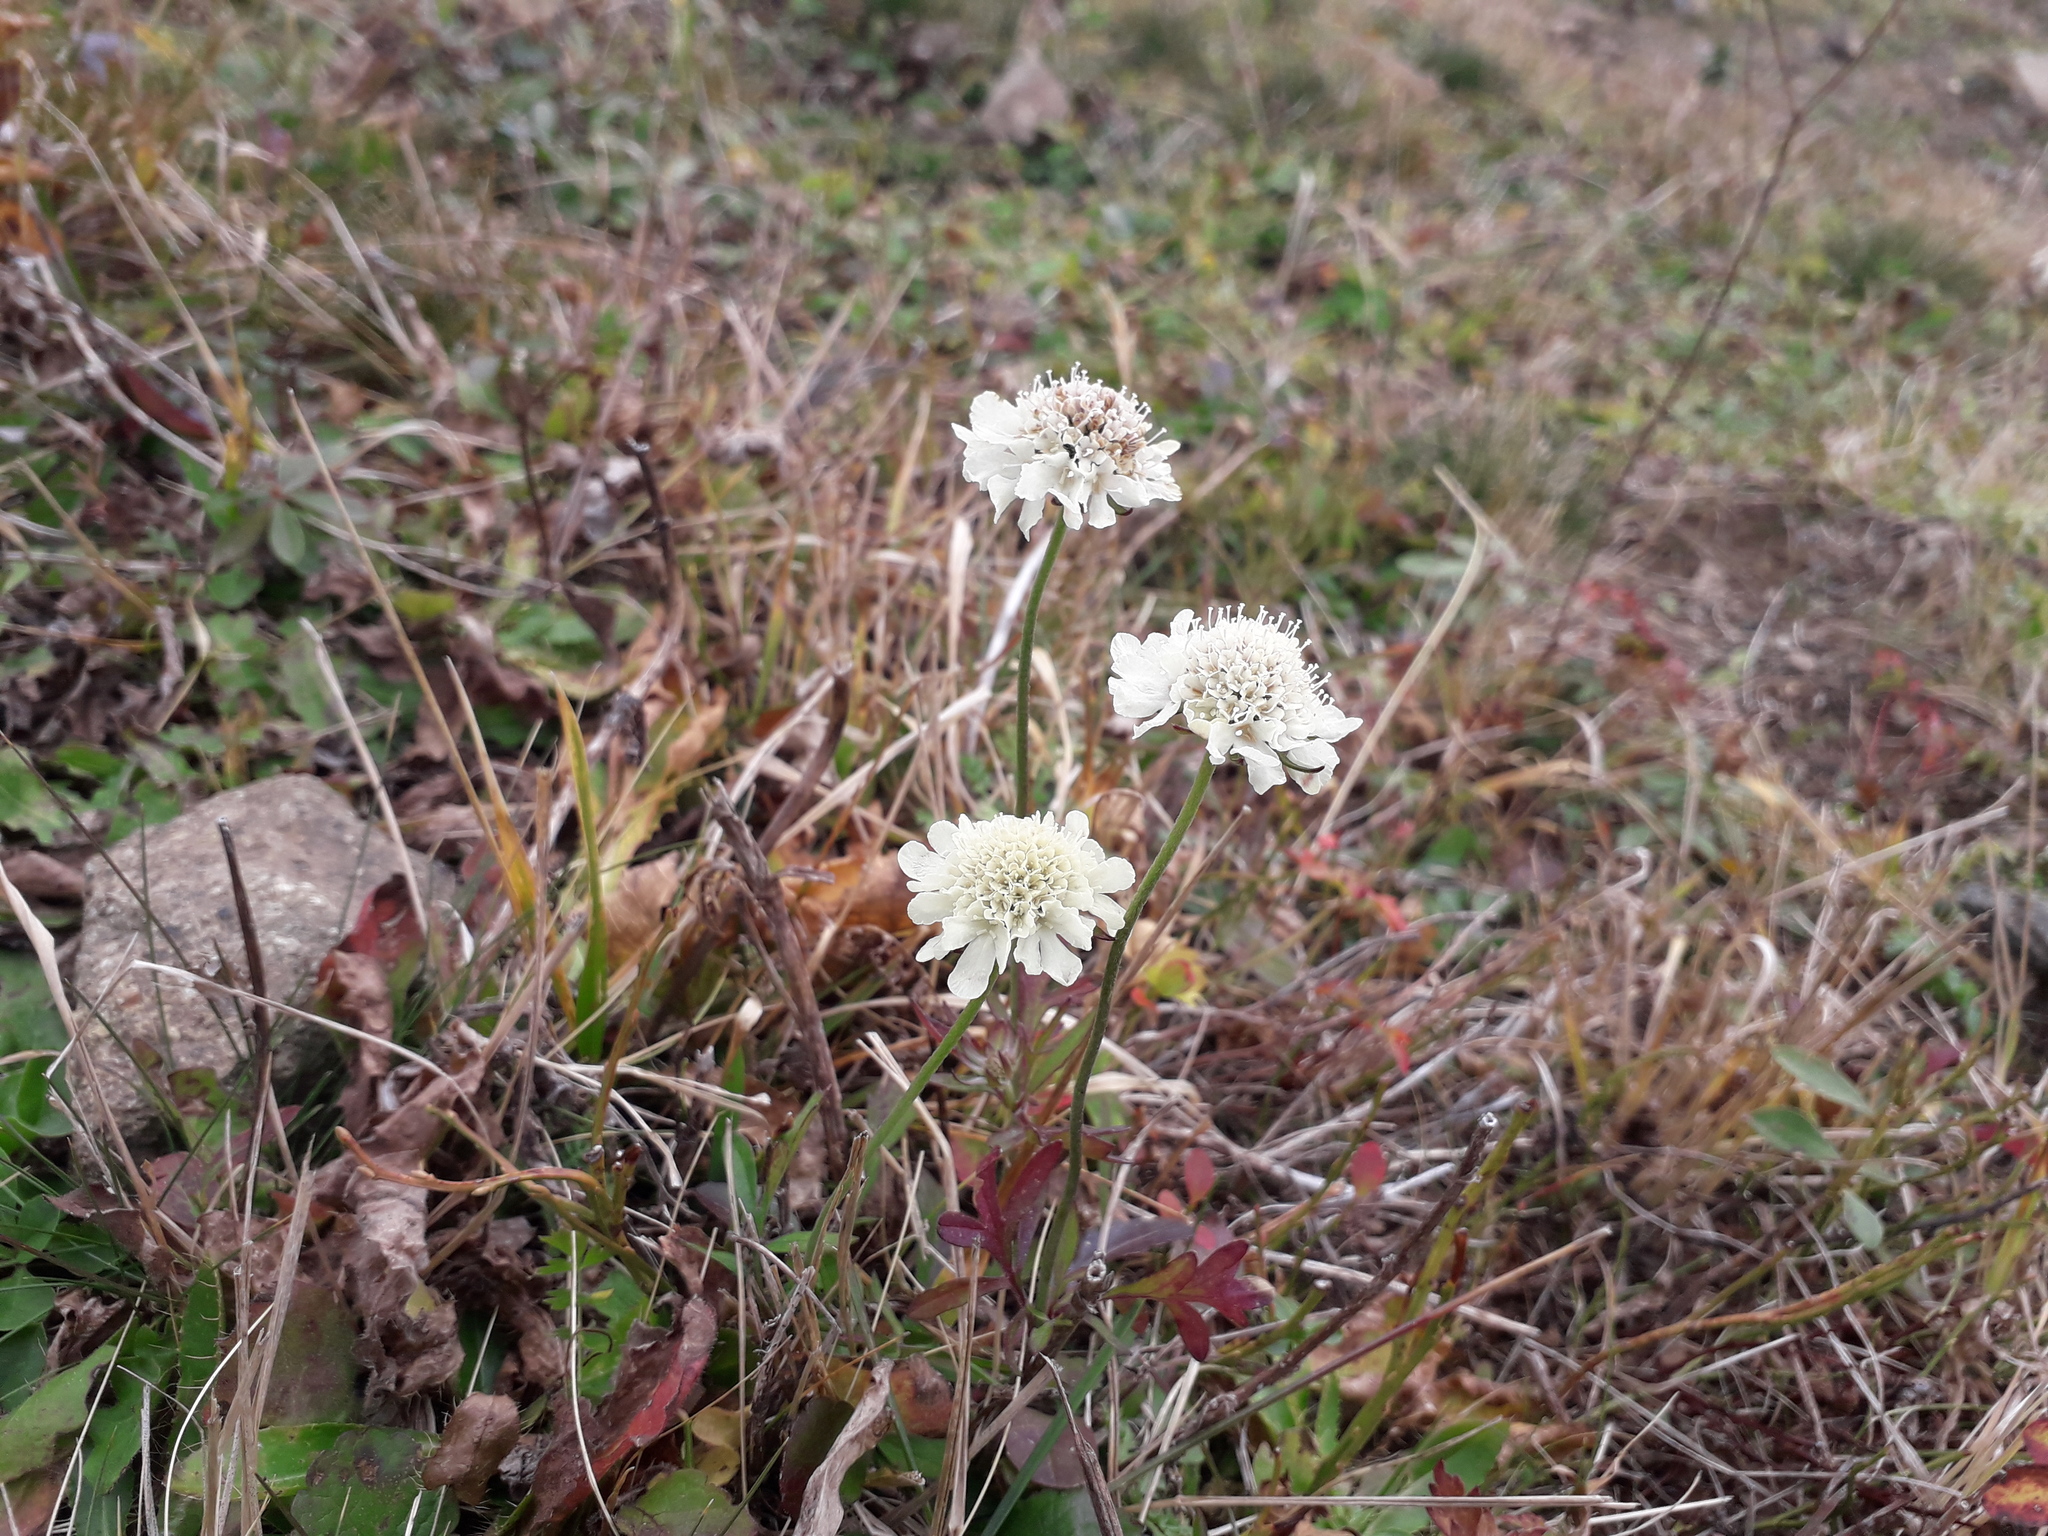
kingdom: Plantae
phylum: Tracheophyta
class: Magnoliopsida
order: Dipsacales
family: Caprifoliaceae
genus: Scabiosa
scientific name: Scabiosa bipinnata
